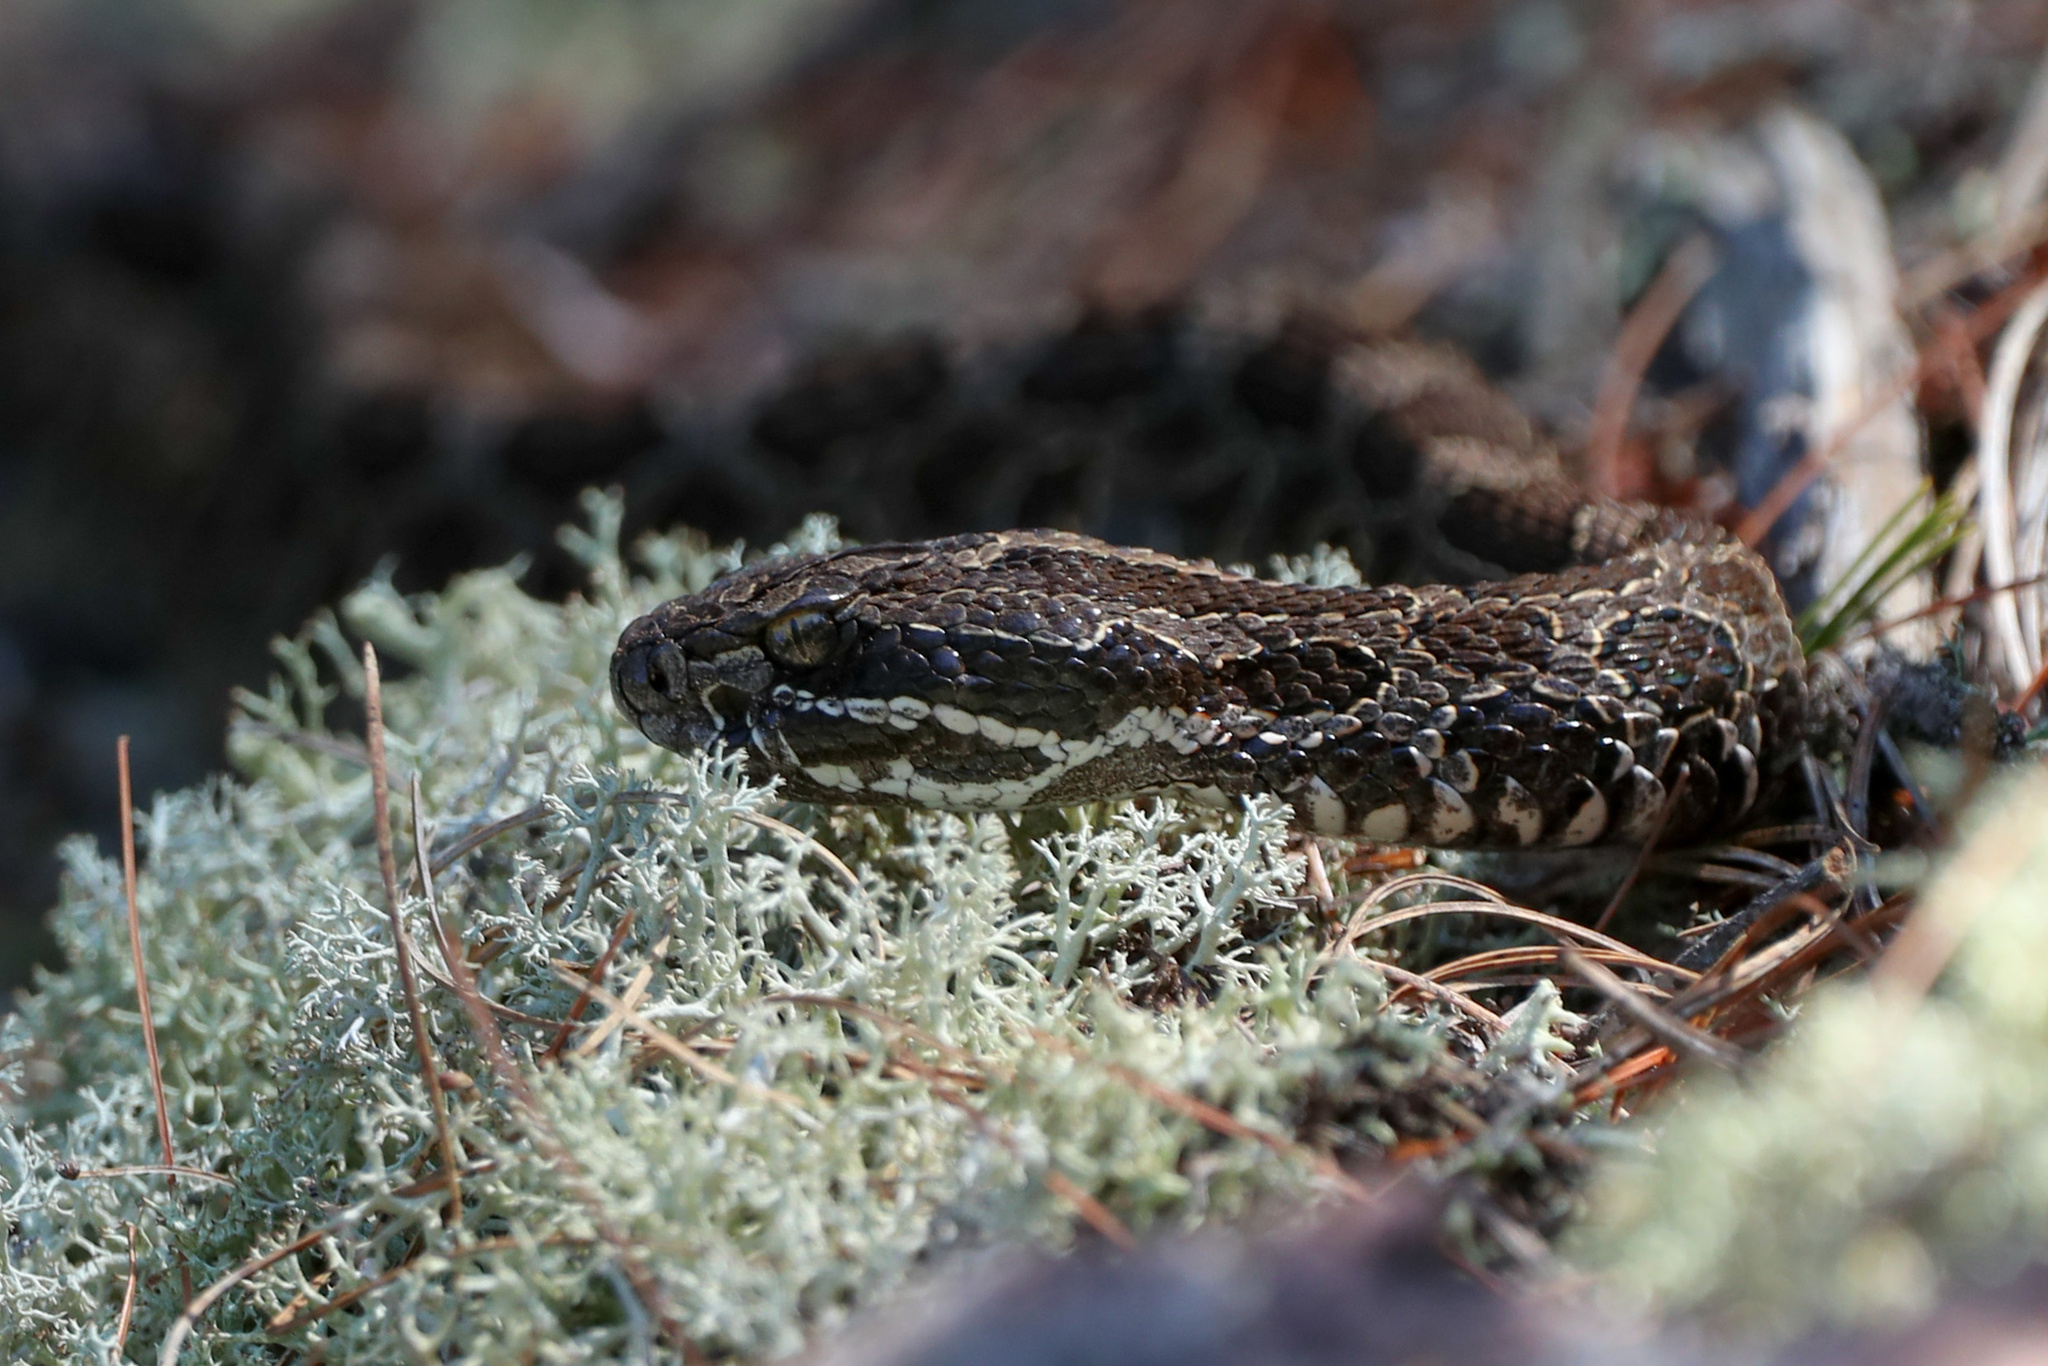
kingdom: Animalia
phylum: Chordata
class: Squamata
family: Viperidae
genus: Sistrurus
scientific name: Sistrurus catenatus
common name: Massasauga
